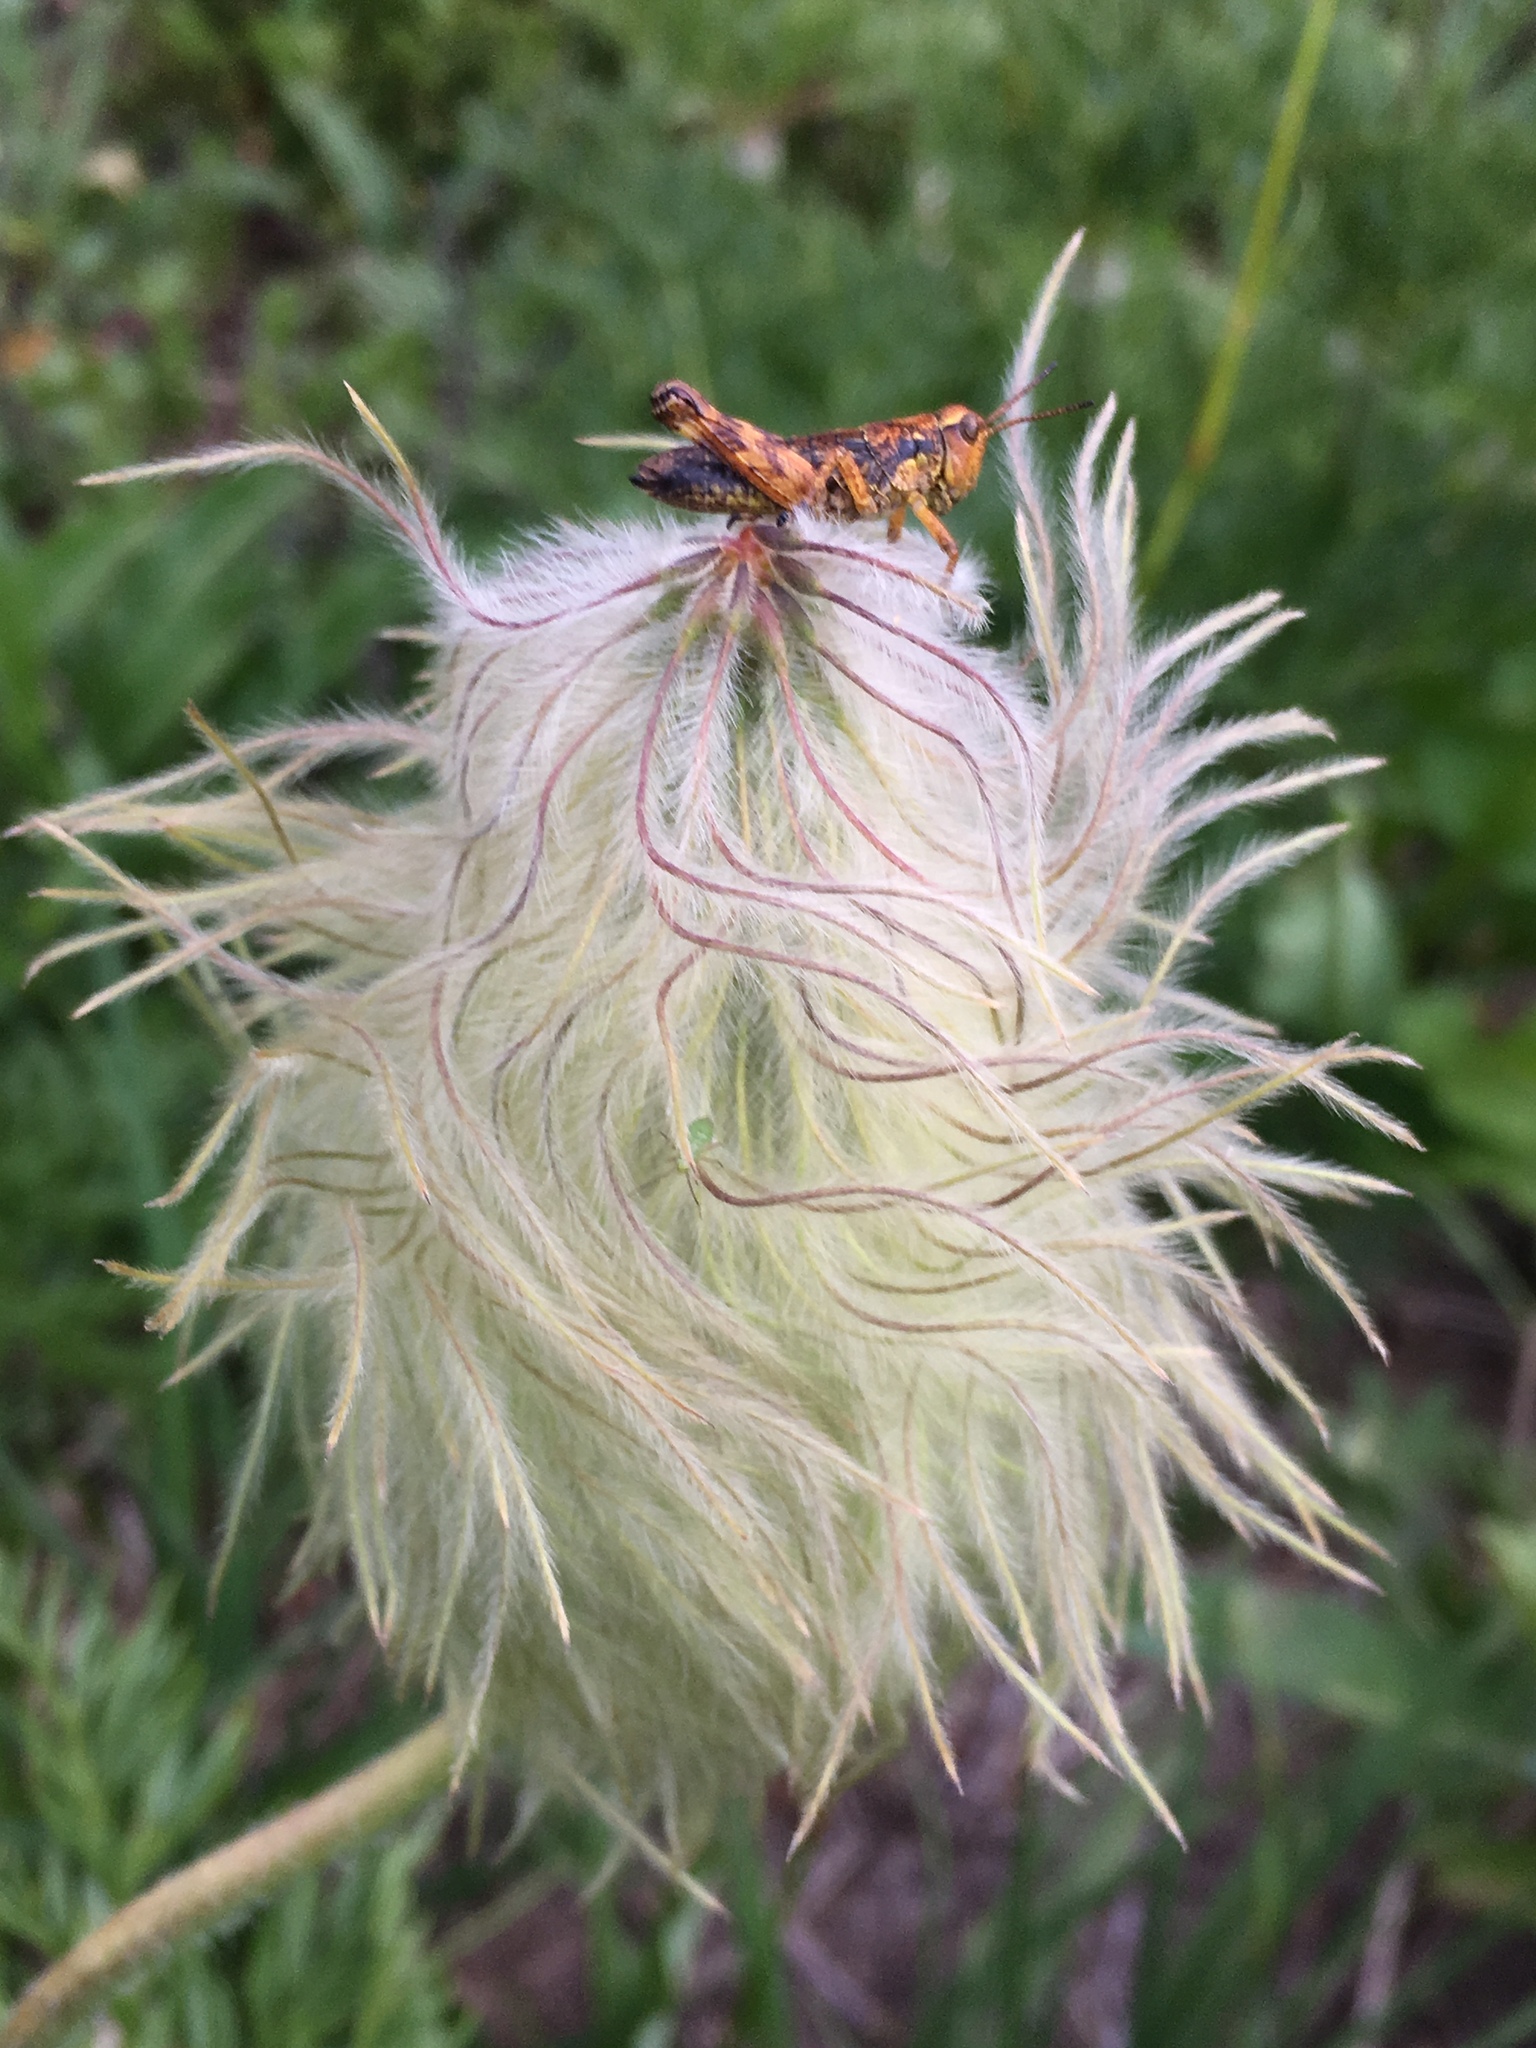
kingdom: Plantae
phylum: Tracheophyta
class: Magnoliopsida
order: Ranunculales
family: Ranunculaceae
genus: Pulsatilla
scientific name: Pulsatilla occidentalis
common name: Mountain pasqueflower
